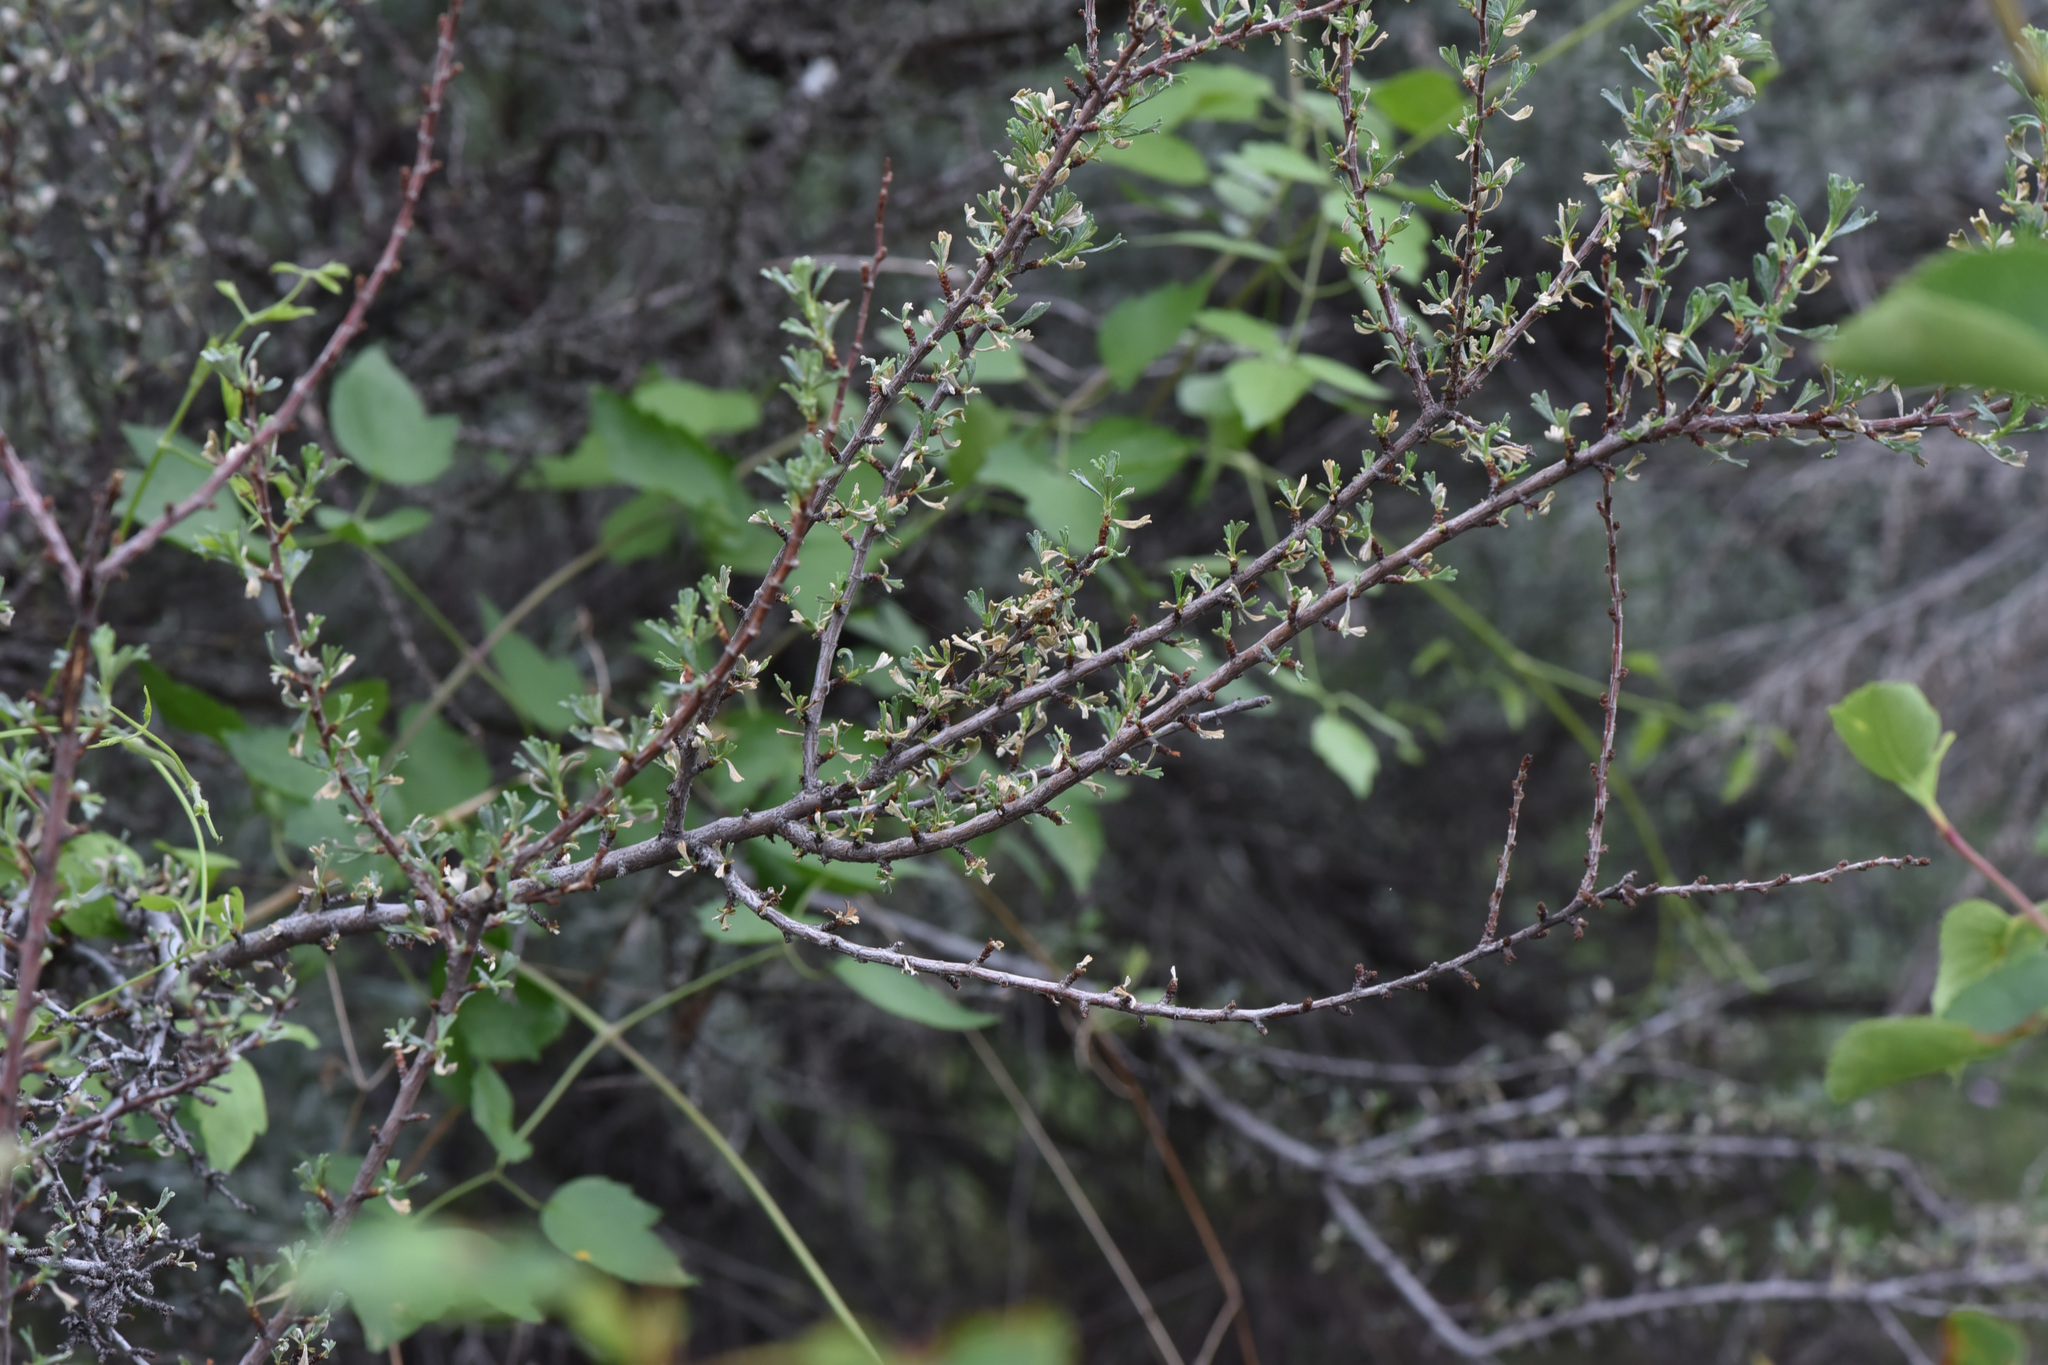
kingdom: Plantae
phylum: Tracheophyta
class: Magnoliopsida
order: Rosales
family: Rosaceae
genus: Purshia
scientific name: Purshia tridentata
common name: Antelope bitterbrush
